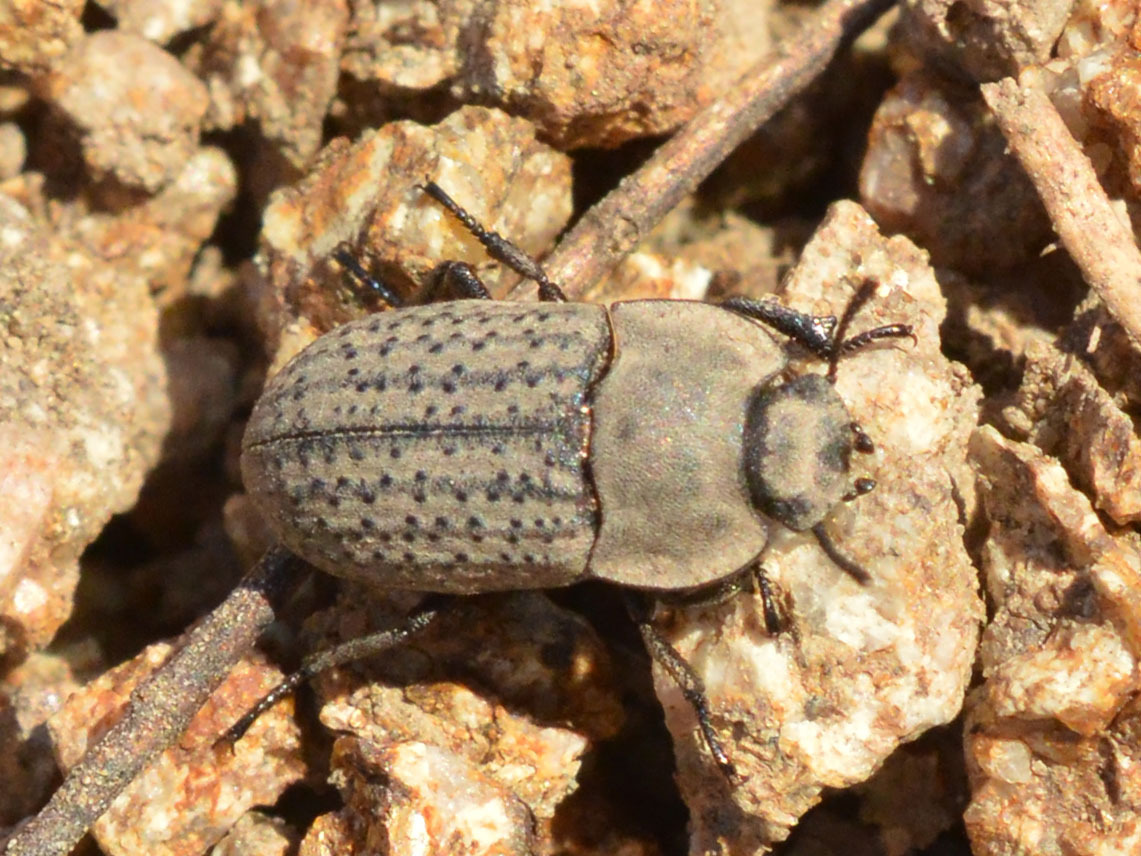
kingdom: Animalia
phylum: Arthropoda
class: Insecta
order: Coleoptera
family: Tenebrionidae
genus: Opatrum
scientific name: Opatrum sabulosum
